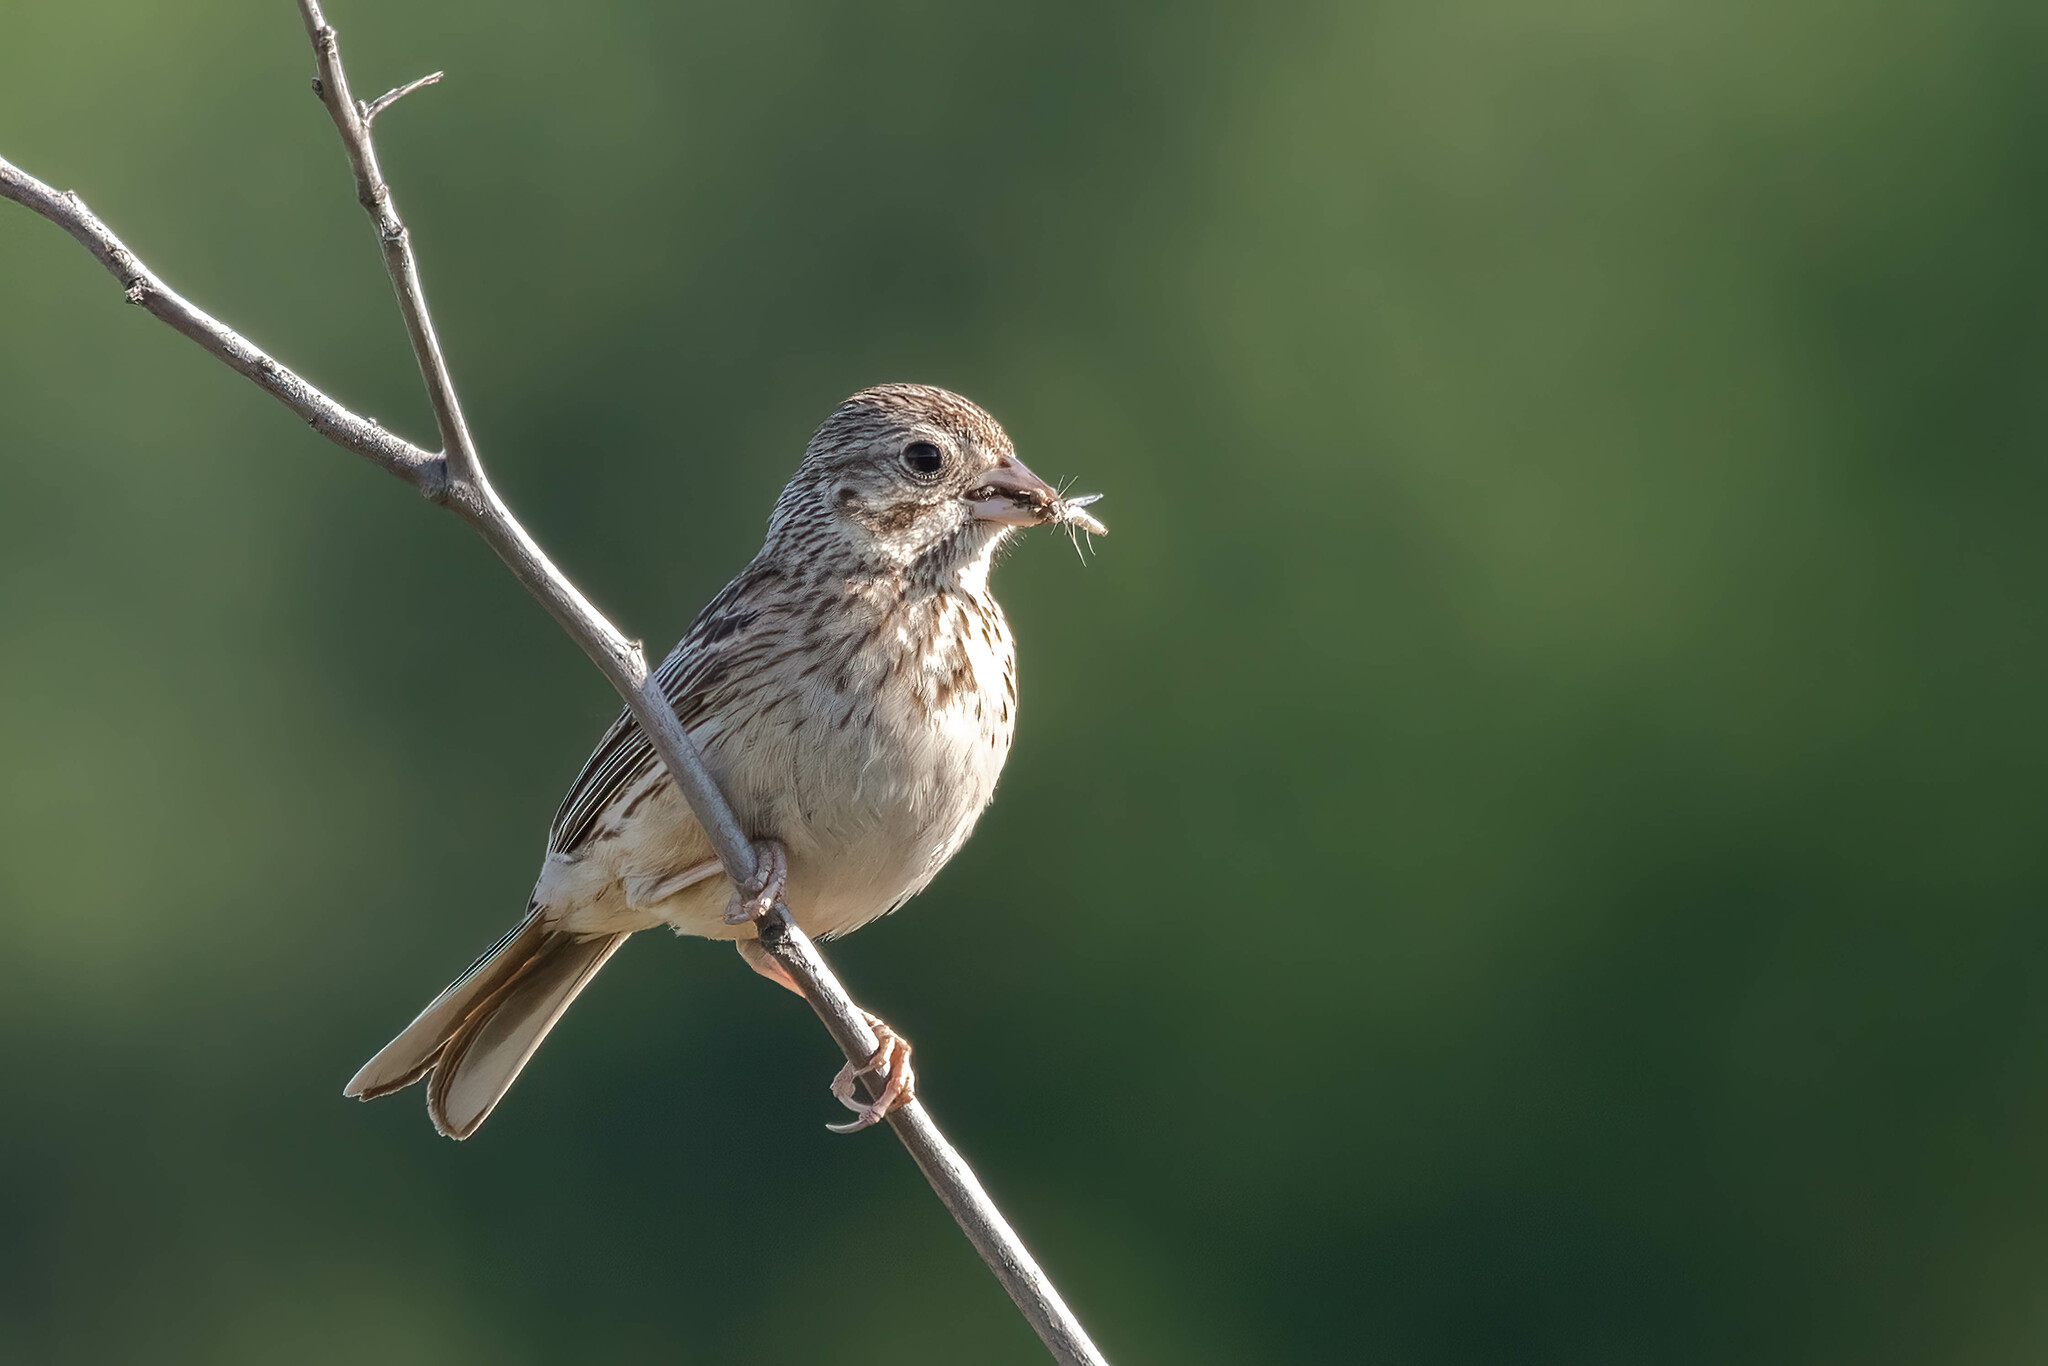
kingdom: Animalia
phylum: Chordata
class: Aves
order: Passeriformes
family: Passerellidae
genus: Pooecetes
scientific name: Pooecetes gramineus
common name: Vesper sparrow
